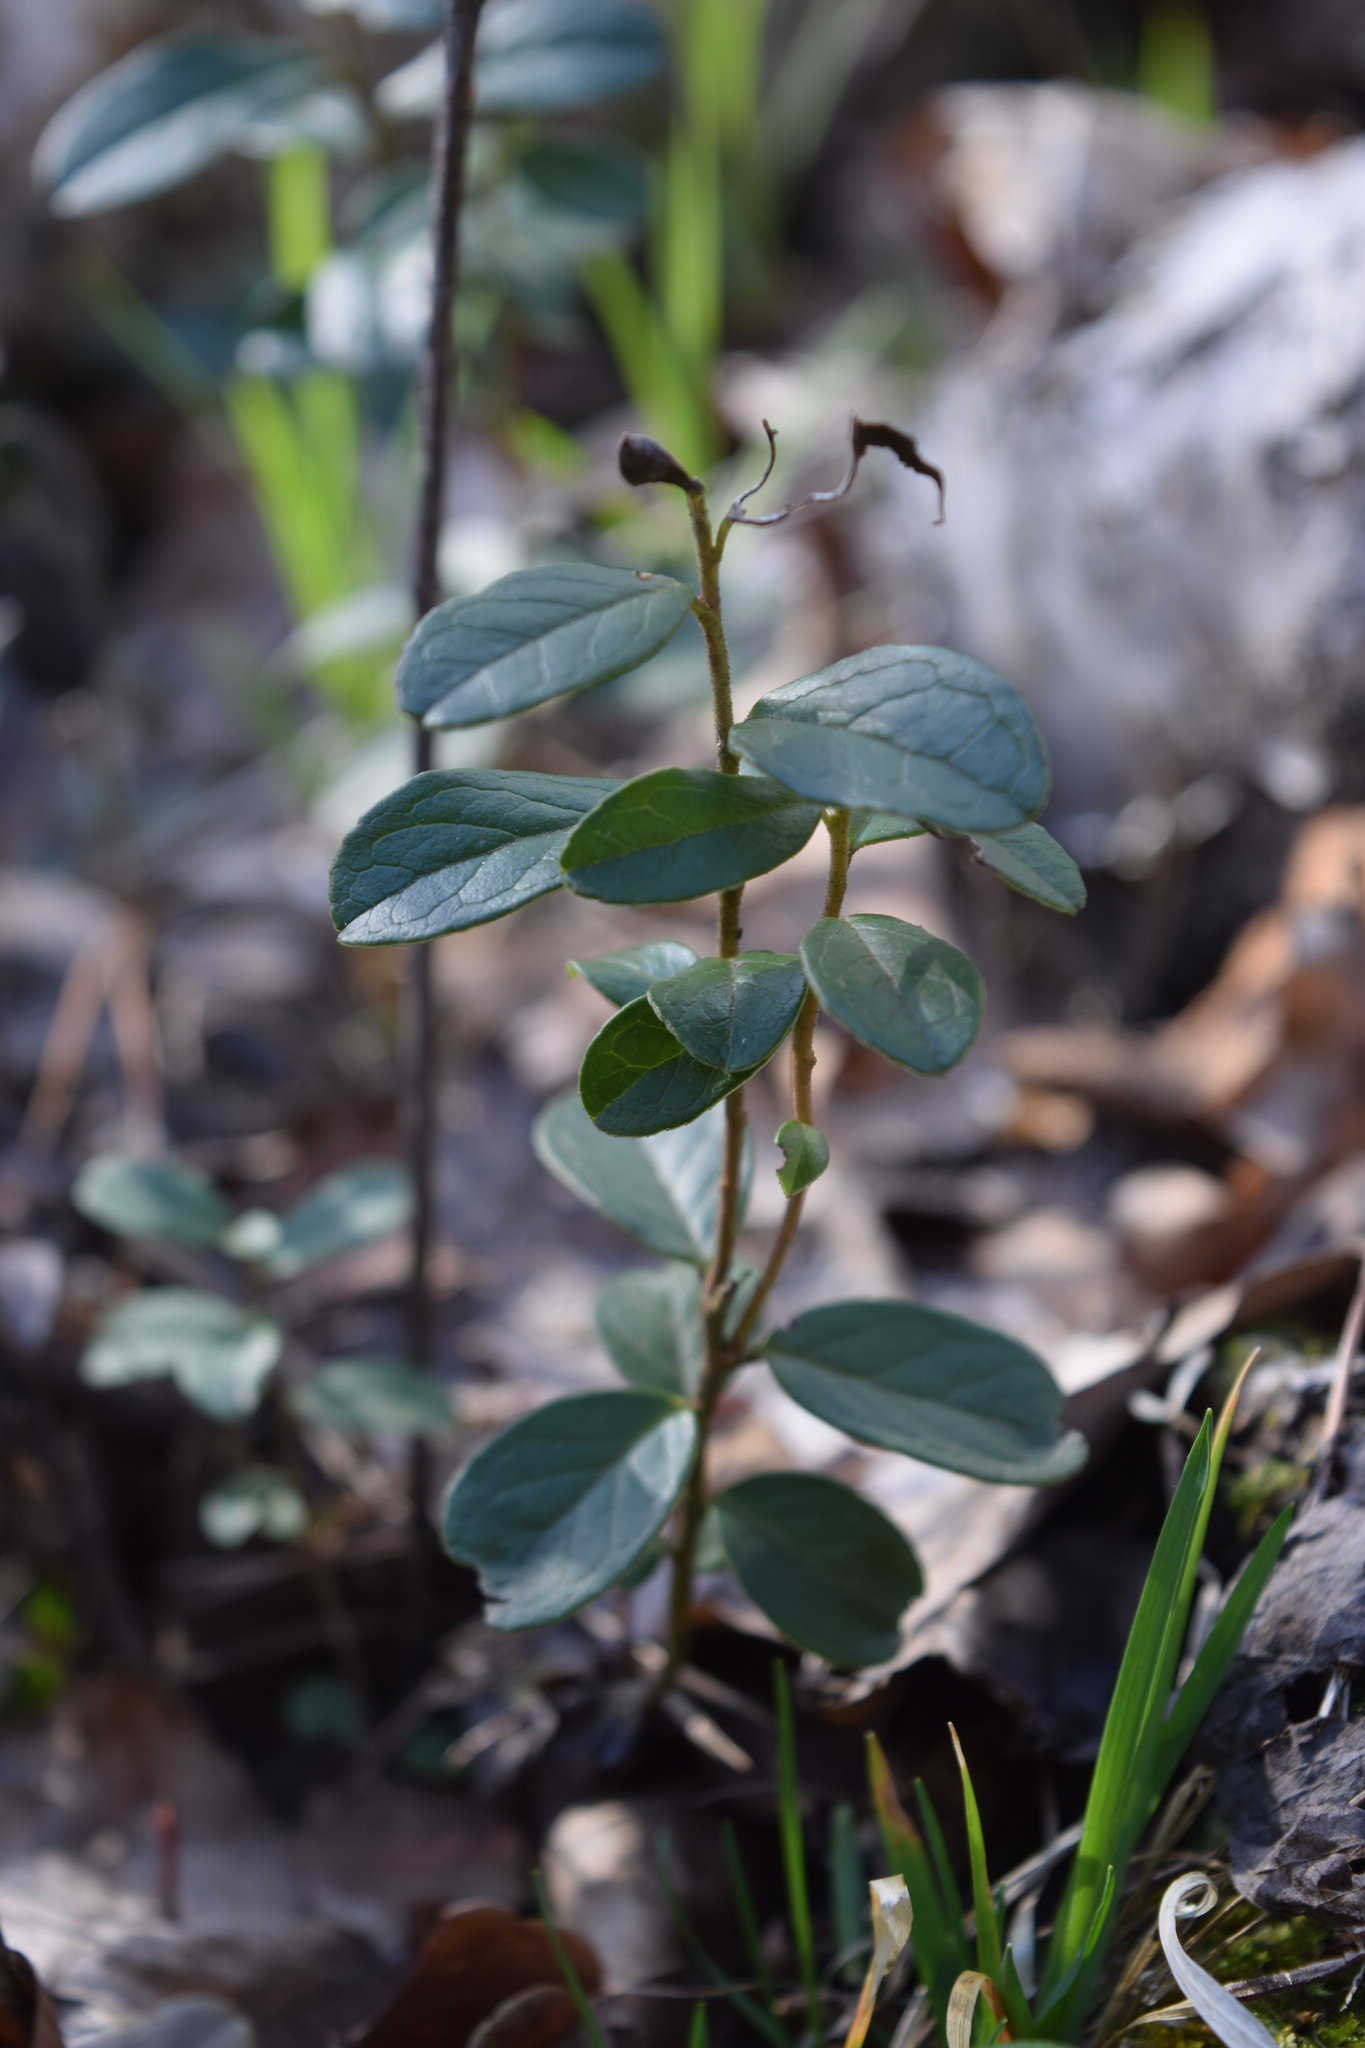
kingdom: Plantae
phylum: Tracheophyta
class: Magnoliopsida
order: Ericales
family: Ericaceae
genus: Vaccinium
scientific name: Vaccinium vitis-idaea
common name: Cowberry
